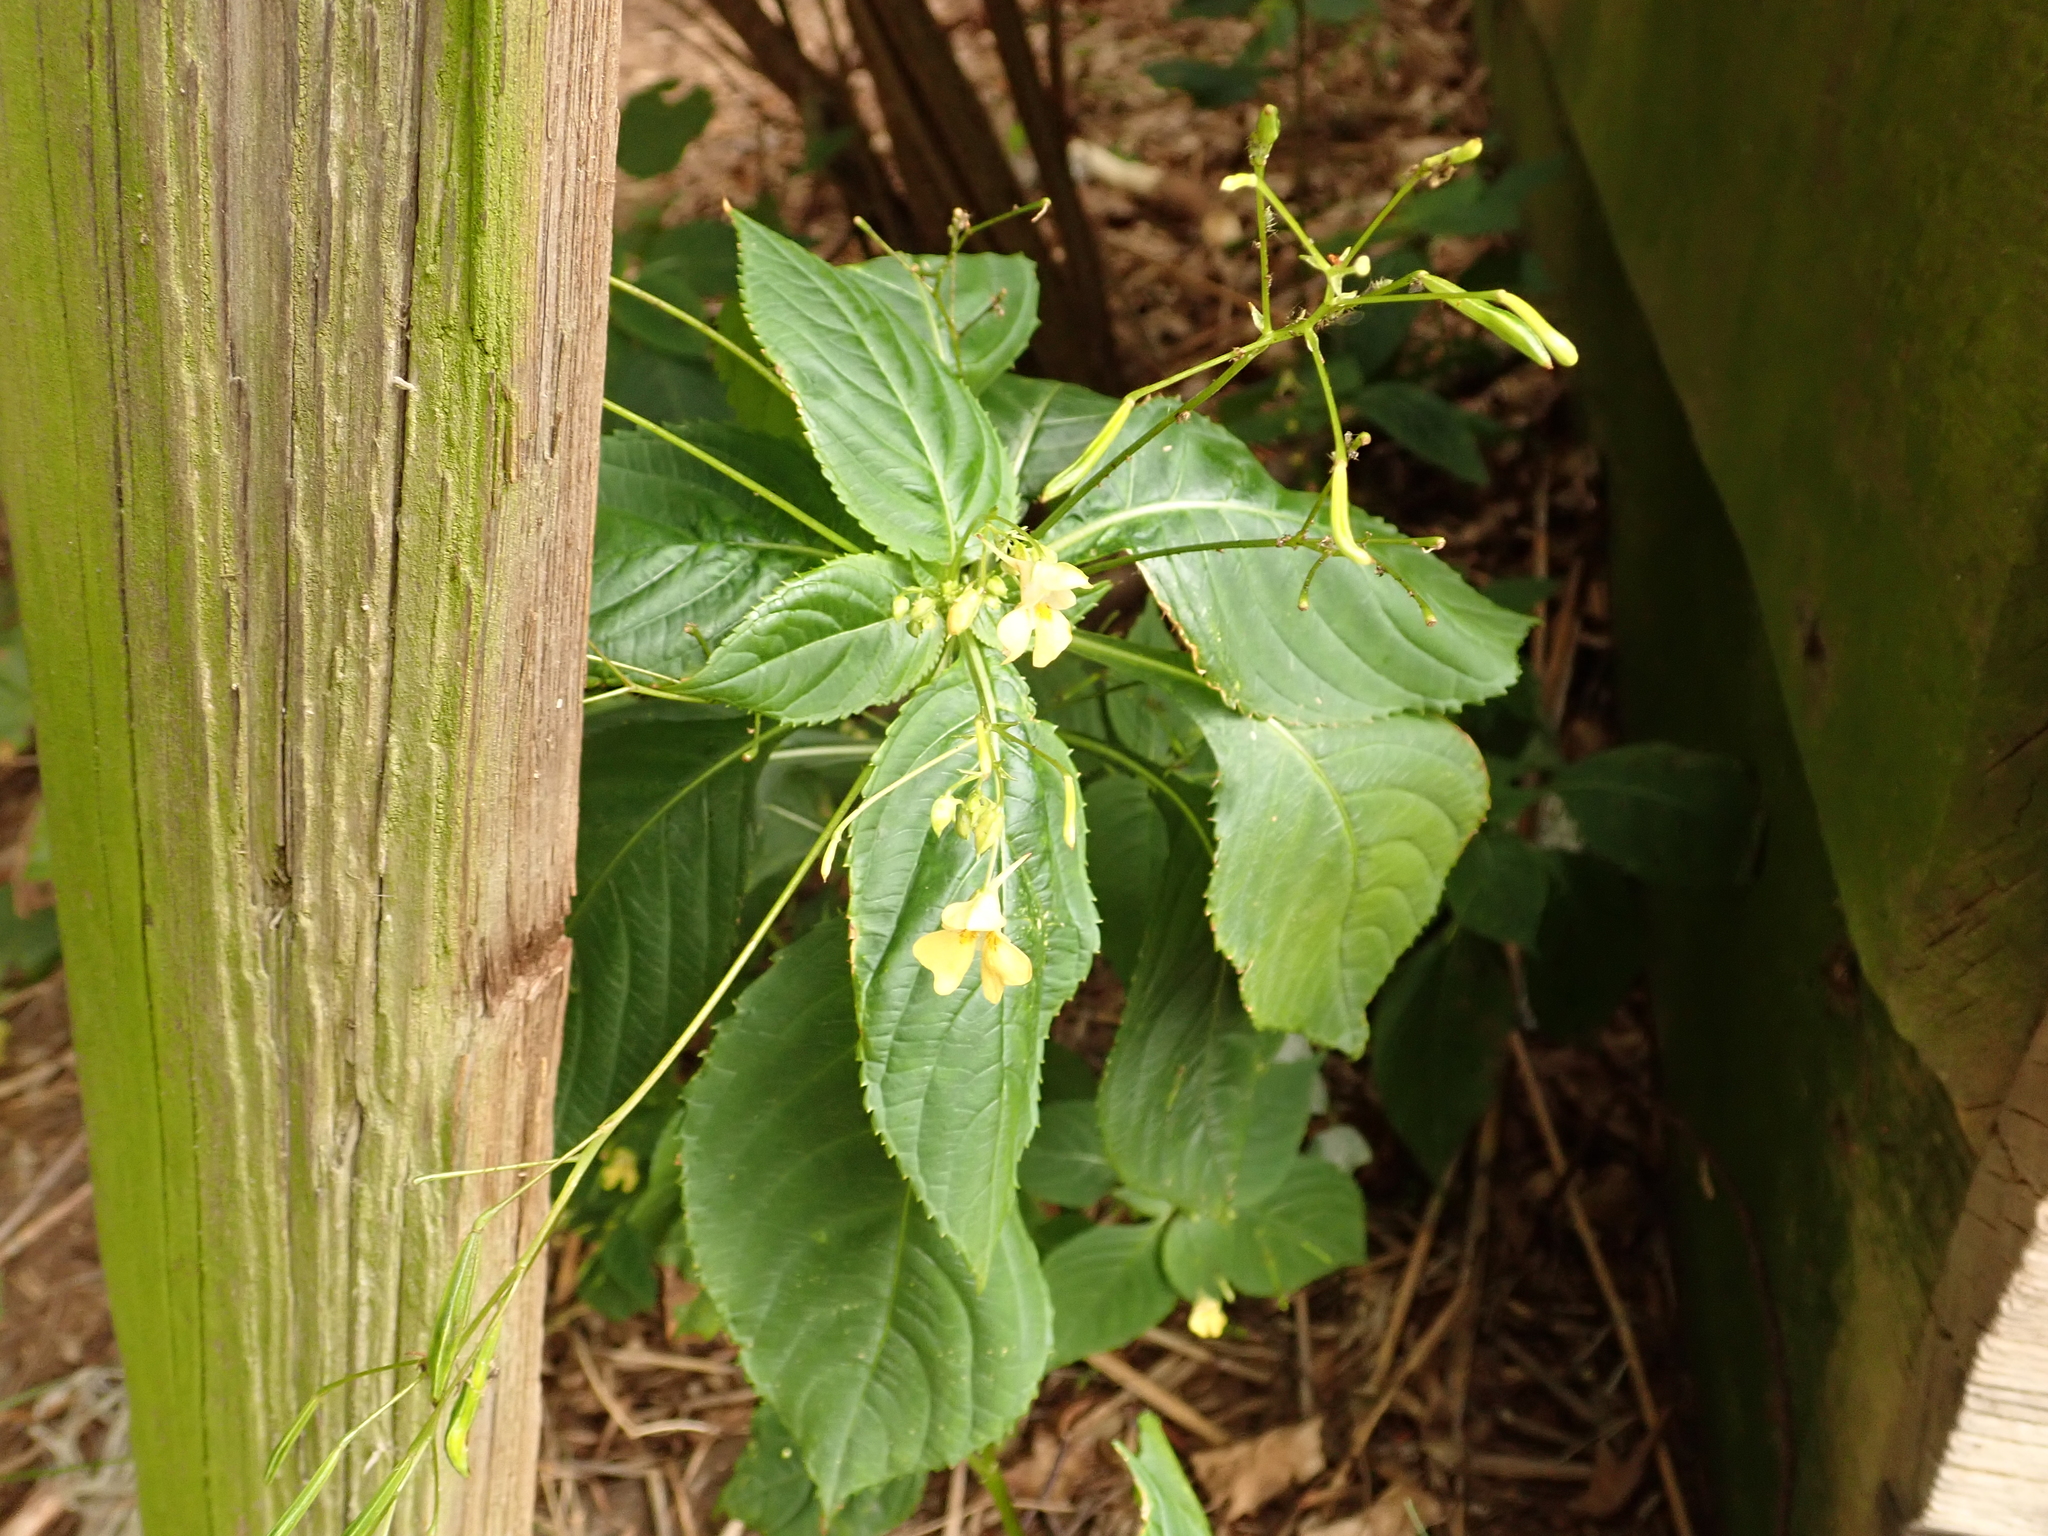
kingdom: Plantae
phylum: Tracheophyta
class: Magnoliopsida
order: Ericales
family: Balsaminaceae
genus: Impatiens
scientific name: Impatiens parviflora
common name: Small balsam
